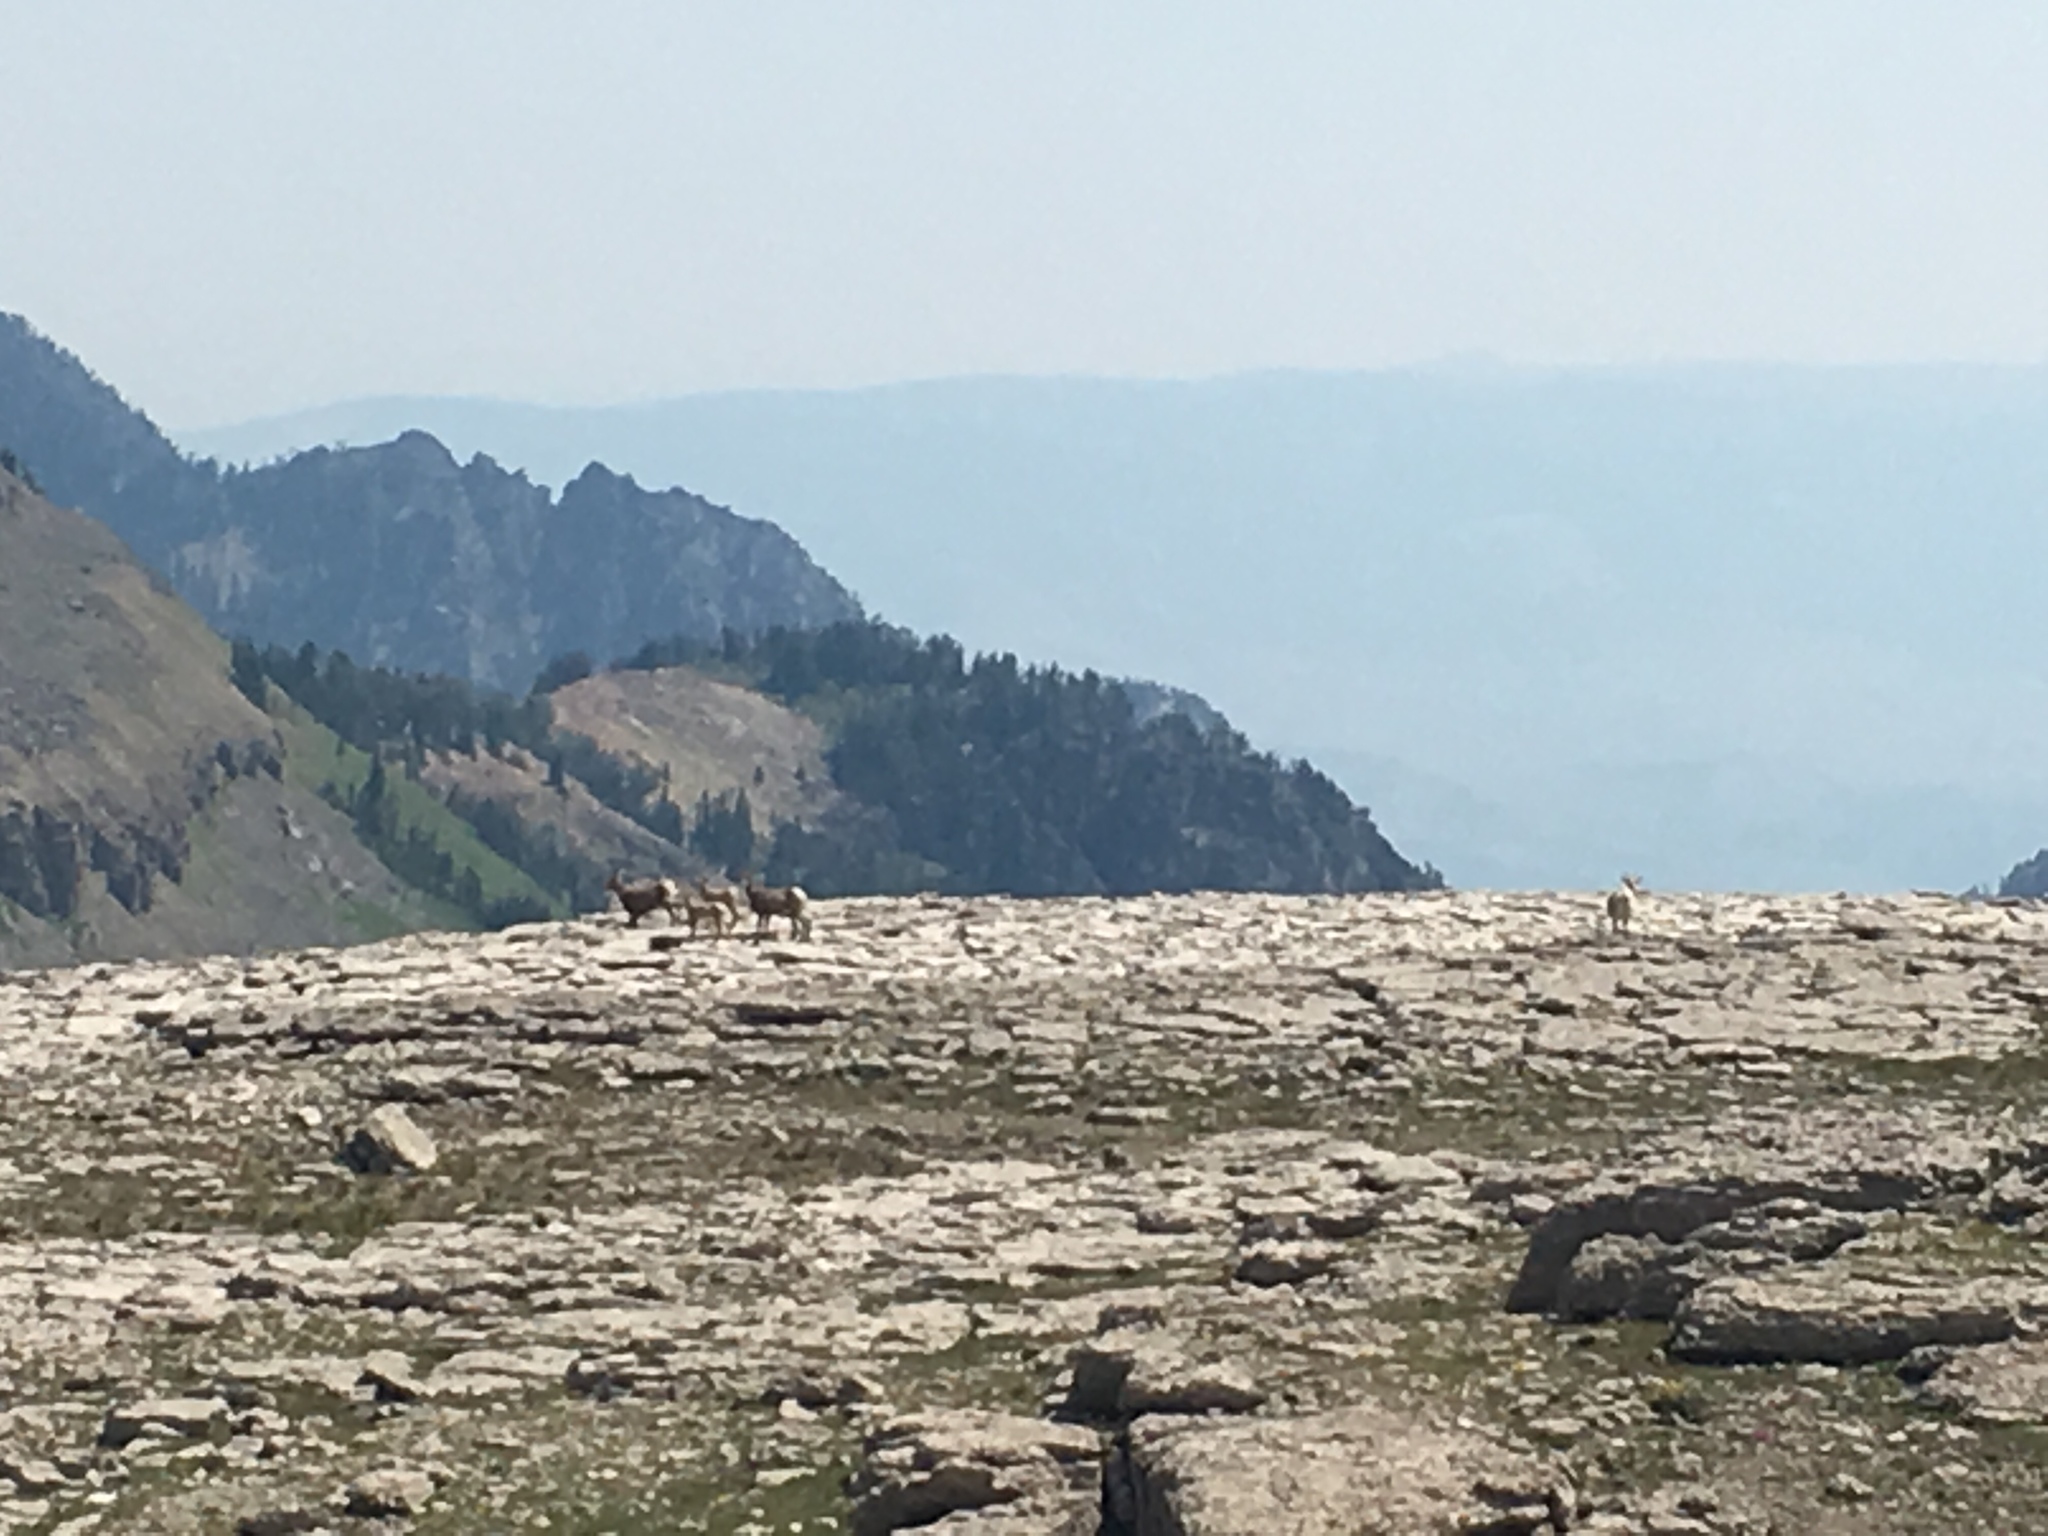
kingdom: Animalia
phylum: Chordata
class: Mammalia
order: Artiodactyla
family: Bovidae
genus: Ovis
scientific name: Ovis canadensis
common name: Bighorn sheep
